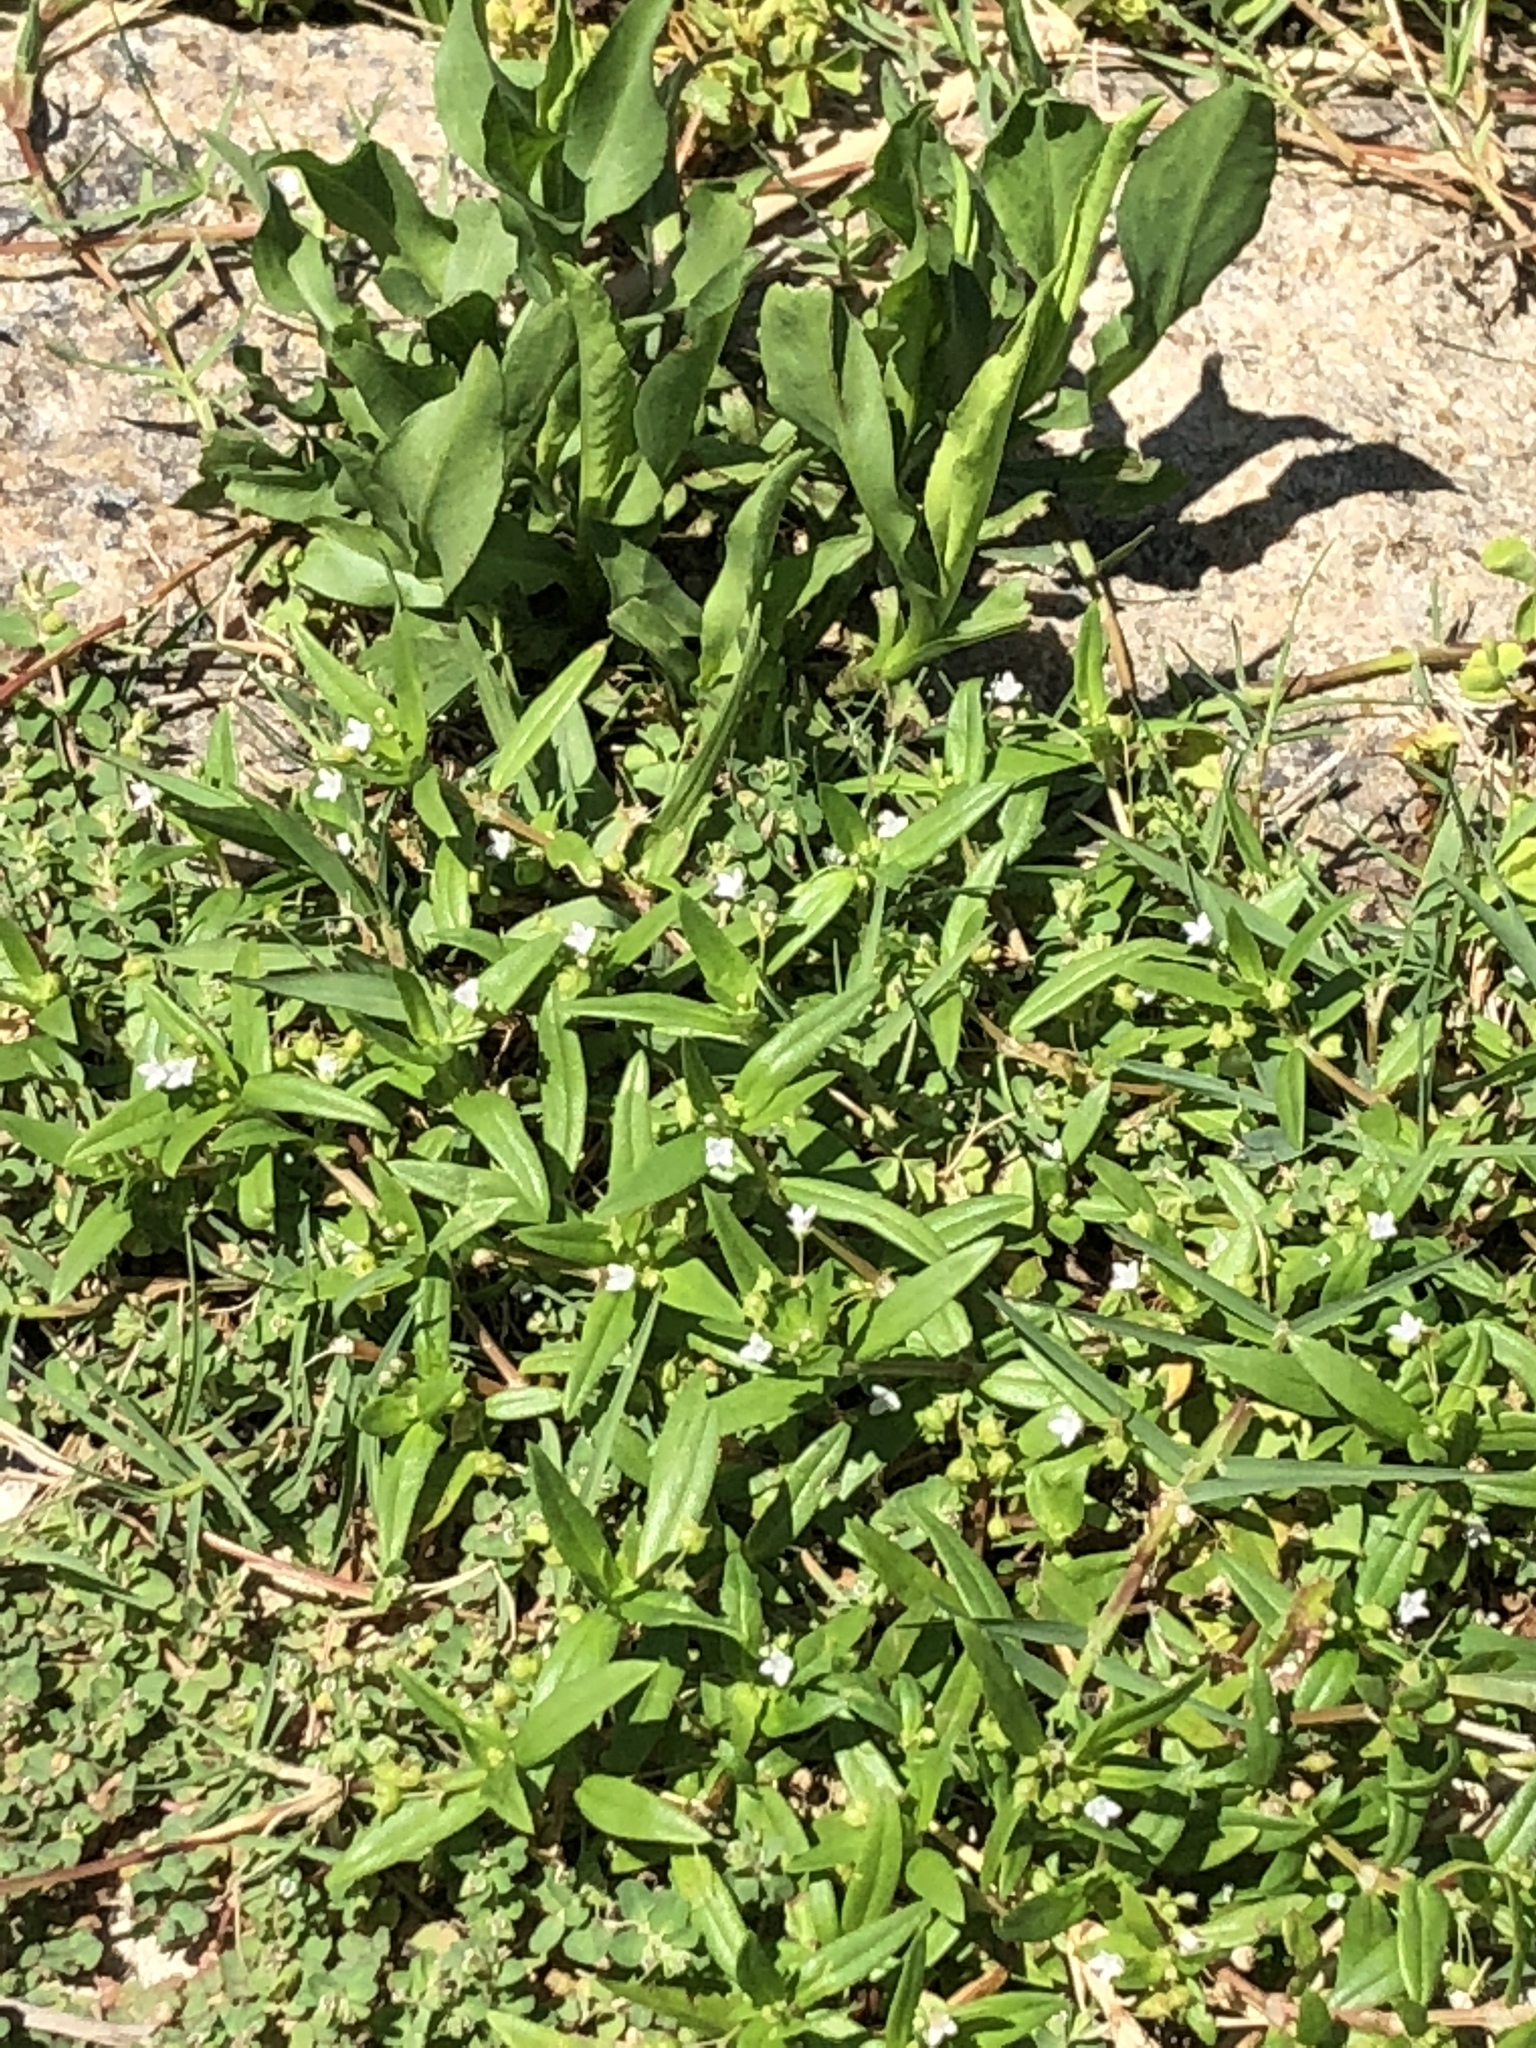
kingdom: Plantae
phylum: Tracheophyta
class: Magnoliopsida
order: Gentianales
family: Rubiaceae
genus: Oldenlandia
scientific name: Oldenlandia corymbosa
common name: Flat-top mille graines
